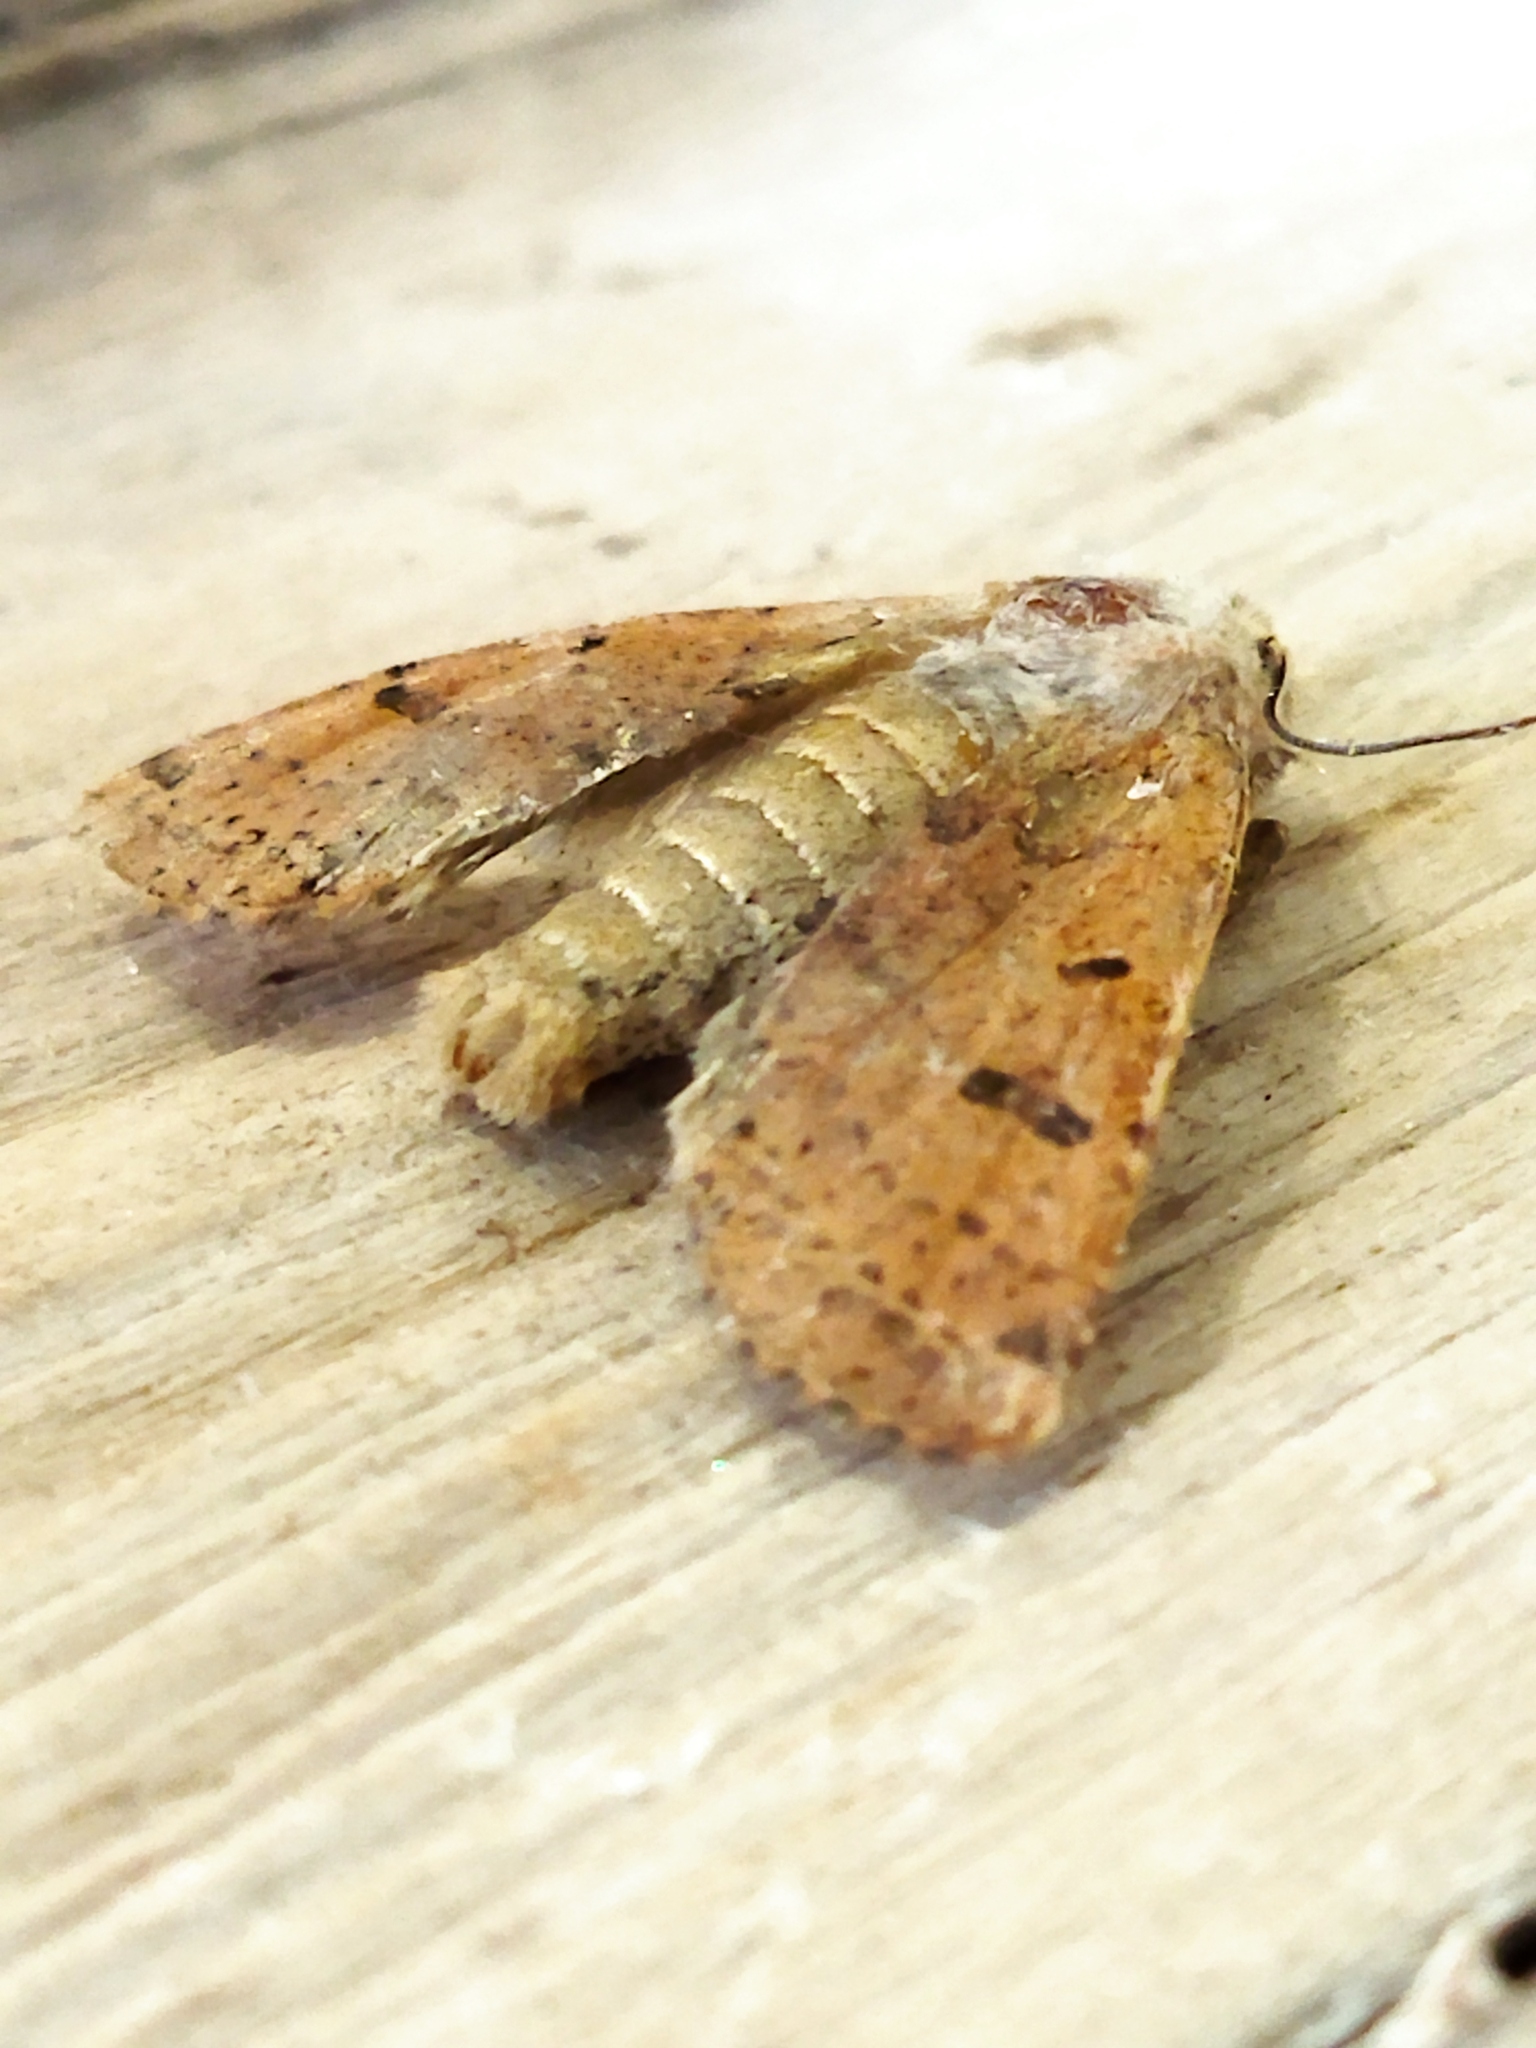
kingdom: Animalia
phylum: Arthropoda
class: Insecta
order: Lepidoptera
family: Noctuidae
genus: Agrochola
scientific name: Agrochola lychnidis
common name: Beaded chestnut
